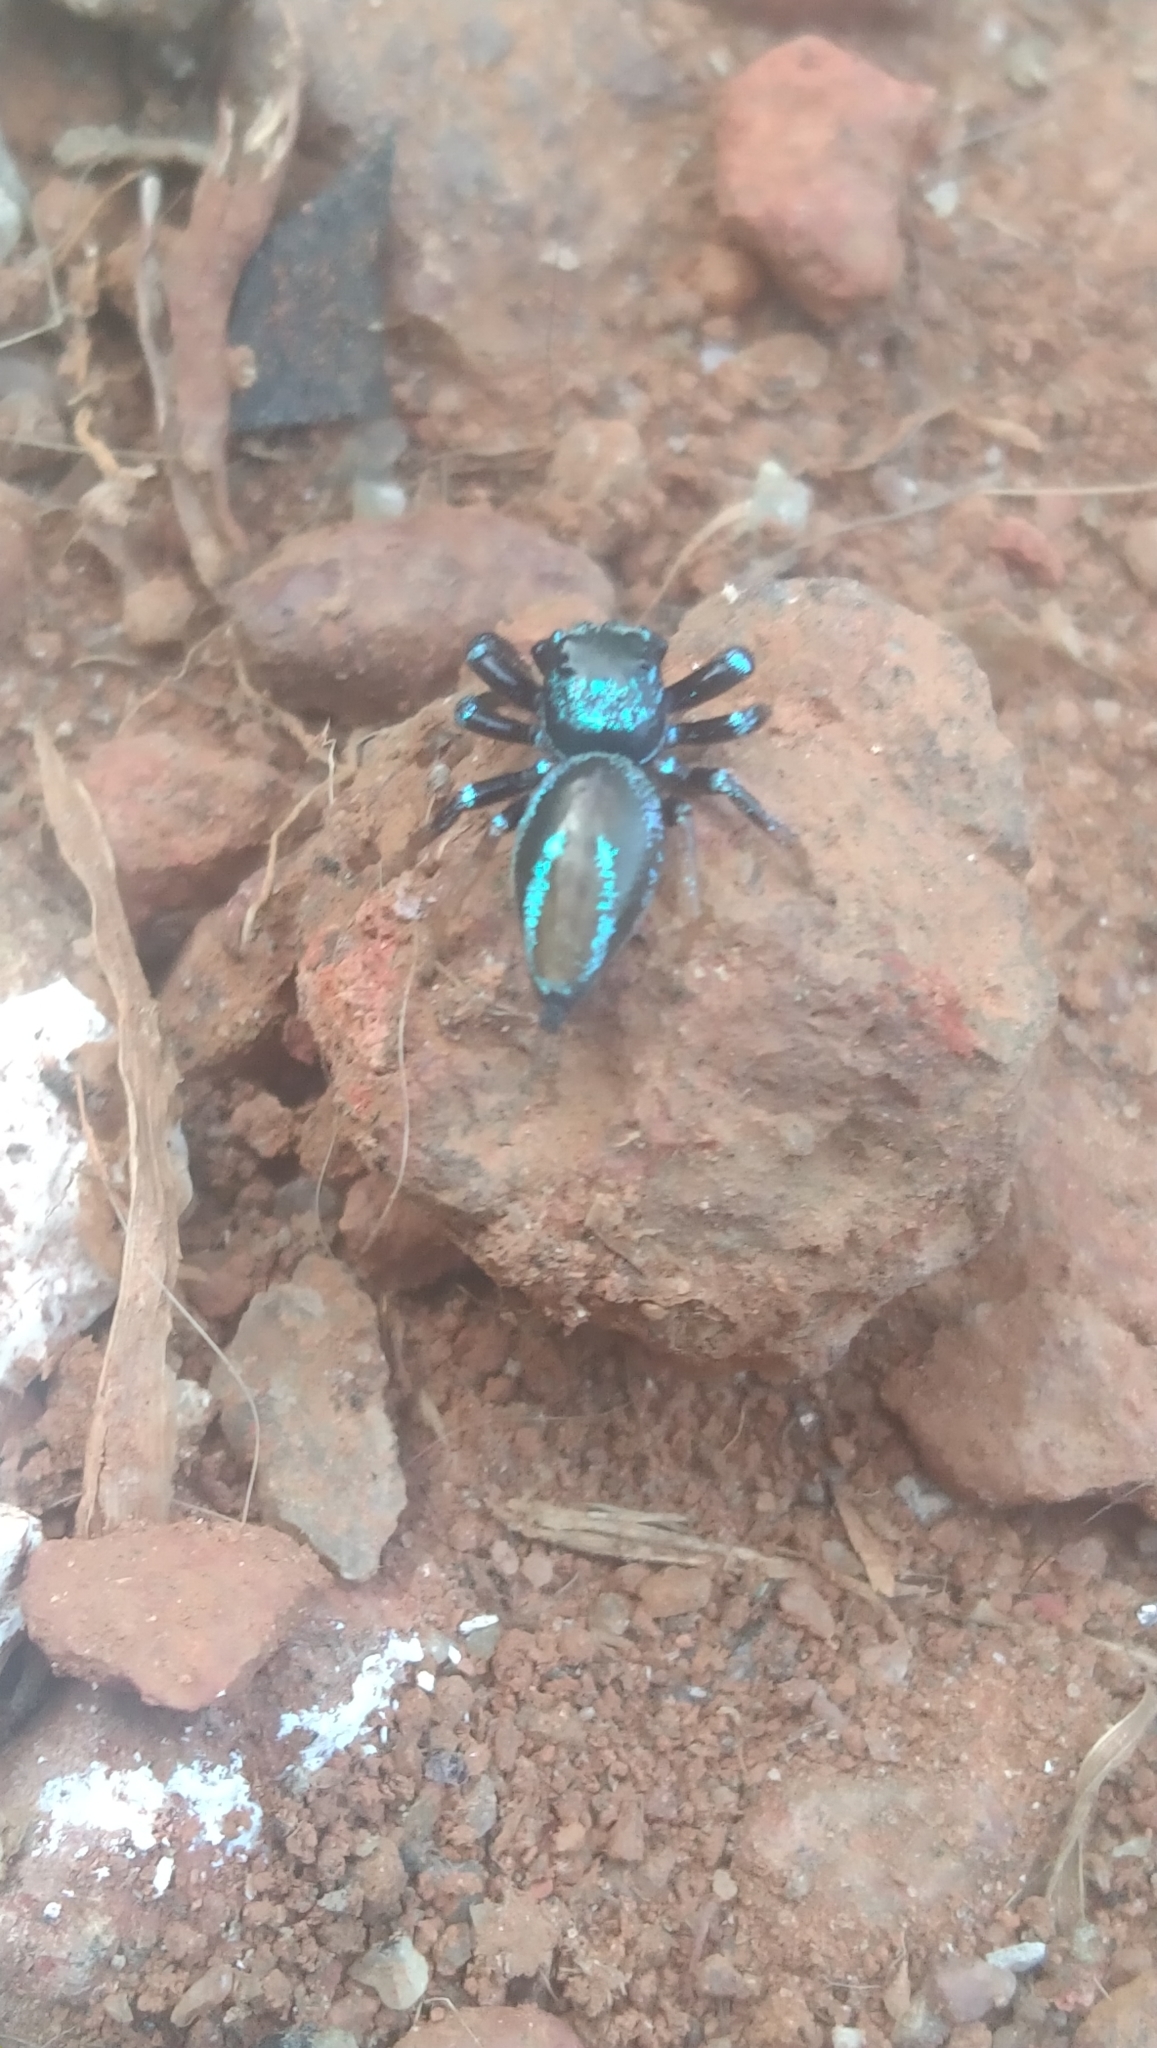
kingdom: Animalia
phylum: Arthropoda
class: Arachnida
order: Araneae
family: Salticidae
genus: Thiania
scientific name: Thiania bhamoensis
